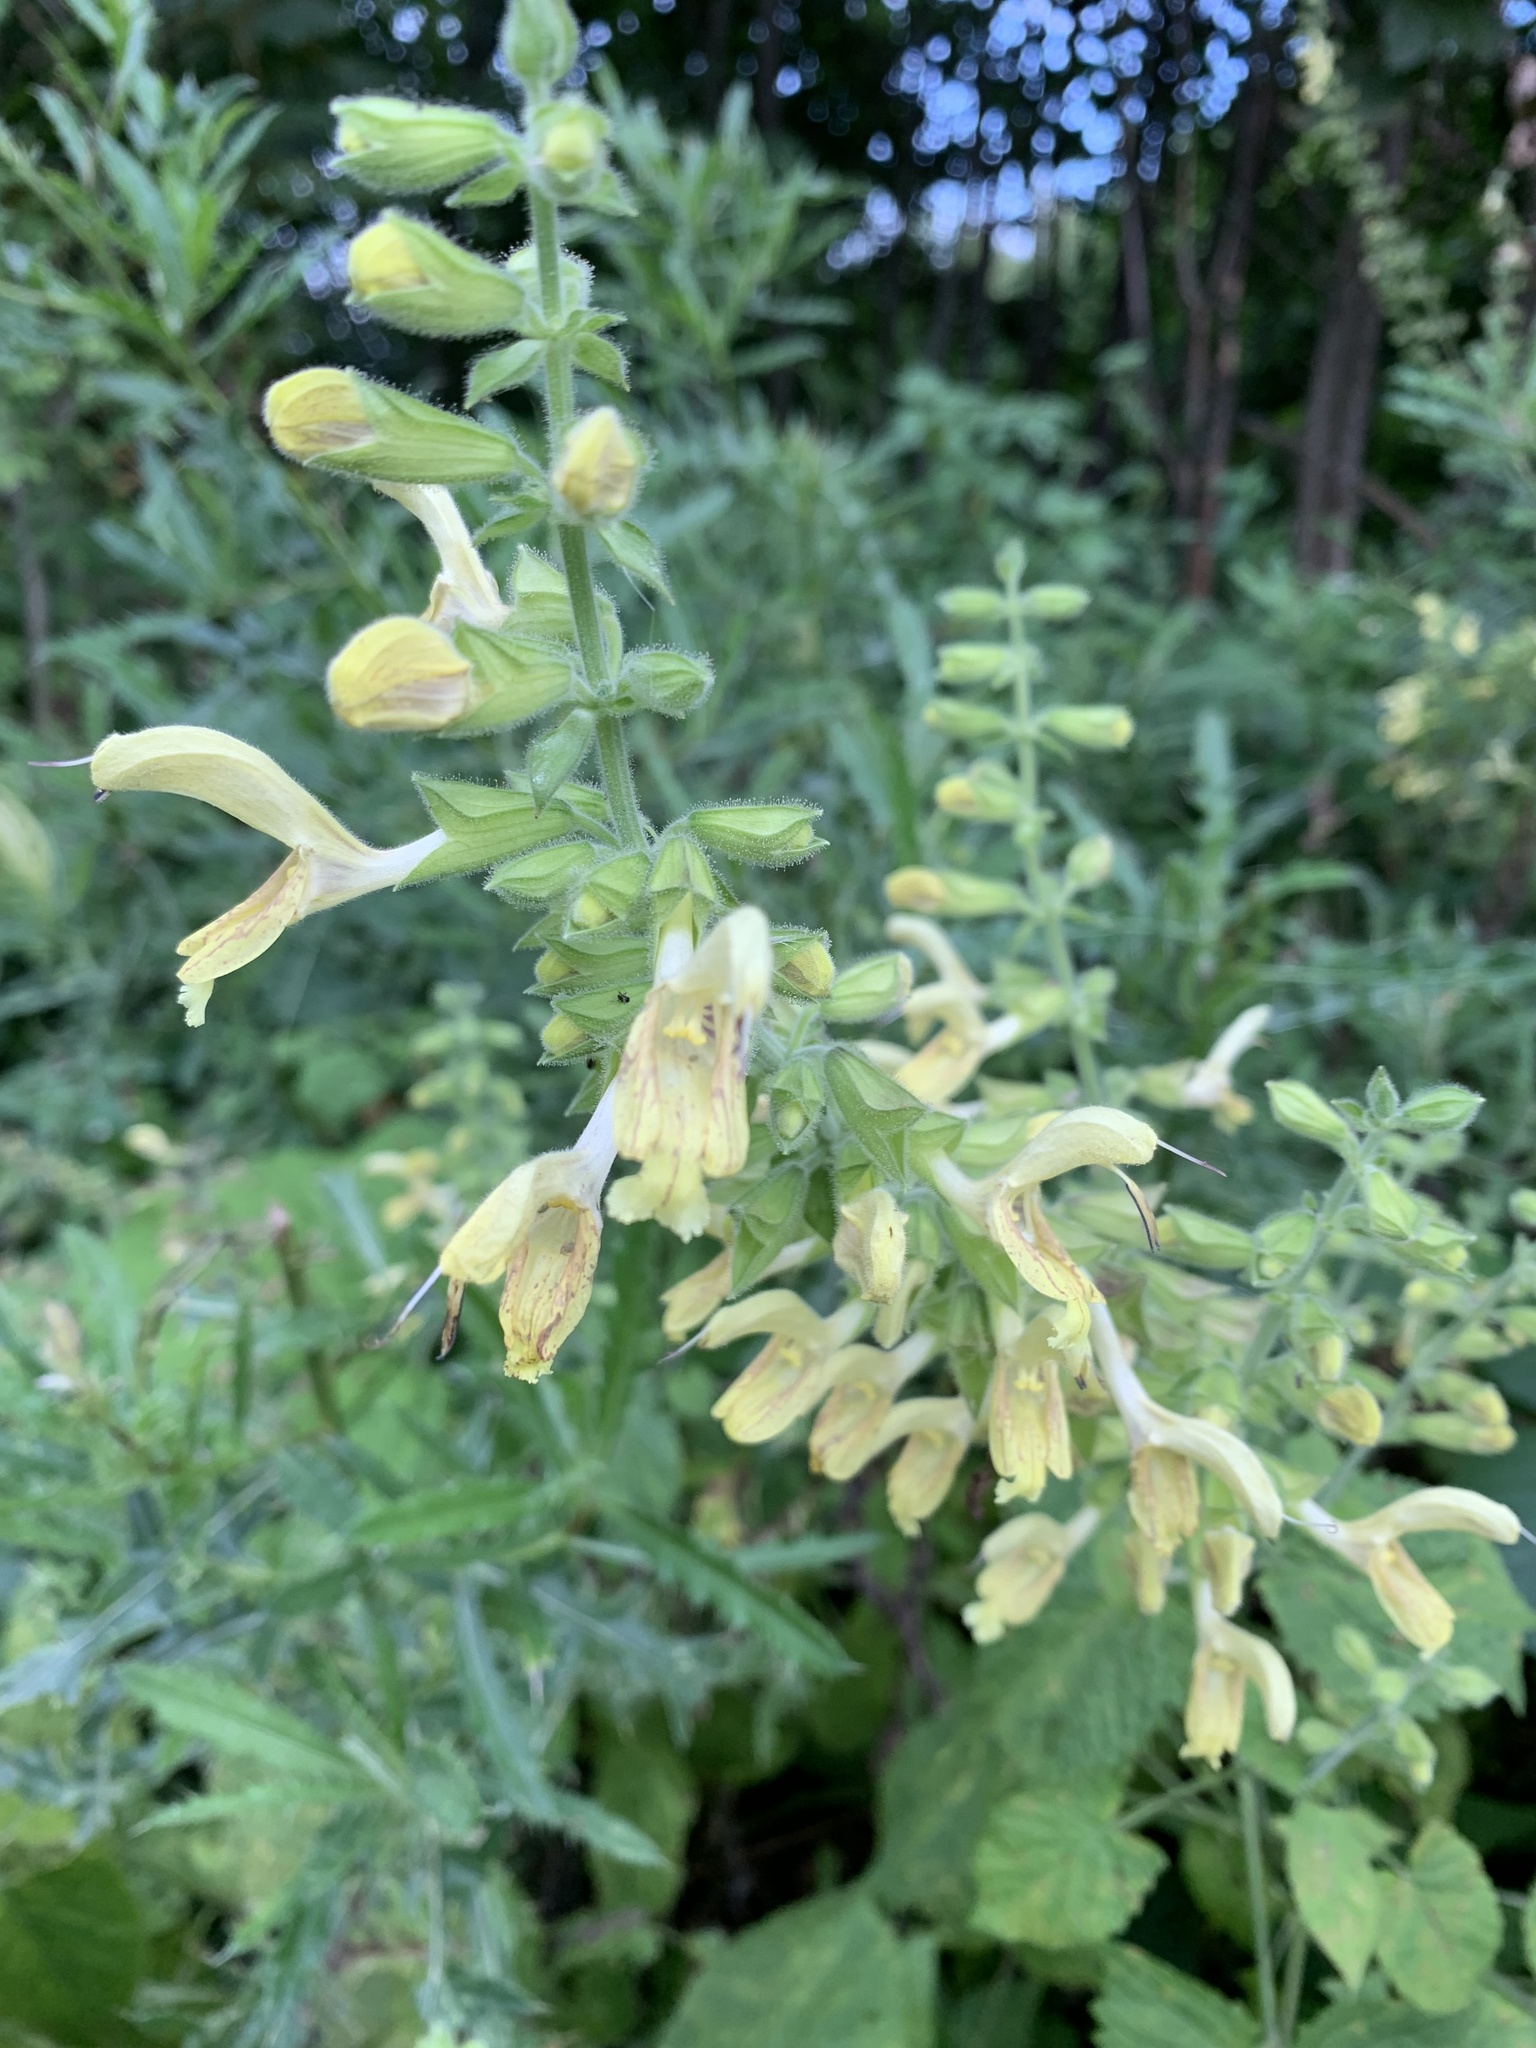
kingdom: Plantae
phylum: Tracheophyta
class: Magnoliopsida
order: Lamiales
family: Lamiaceae
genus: Salvia
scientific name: Salvia glutinosa
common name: Sticky clary
